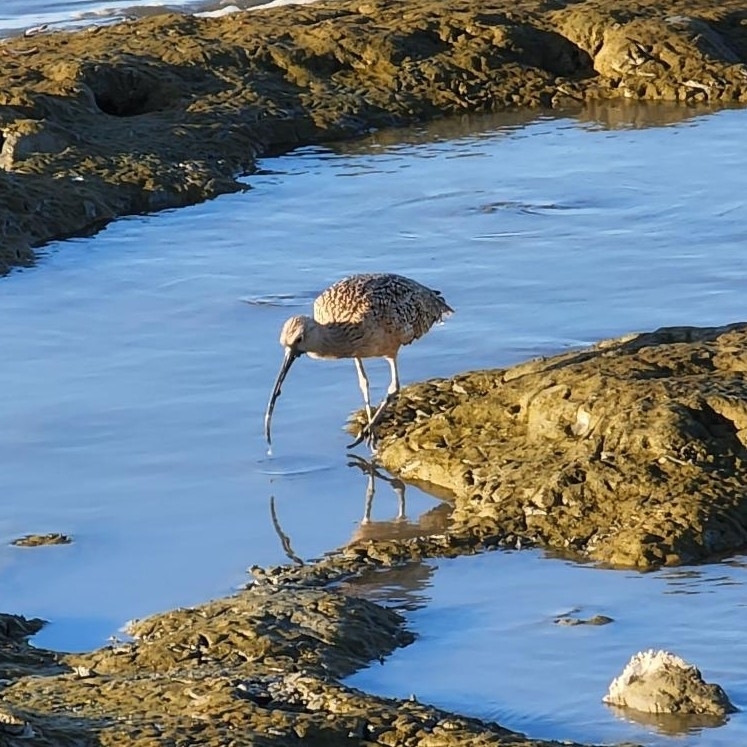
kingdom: Animalia
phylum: Chordata
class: Aves
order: Charadriiformes
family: Scolopacidae
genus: Numenius
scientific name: Numenius americanus
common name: Long-billed curlew
